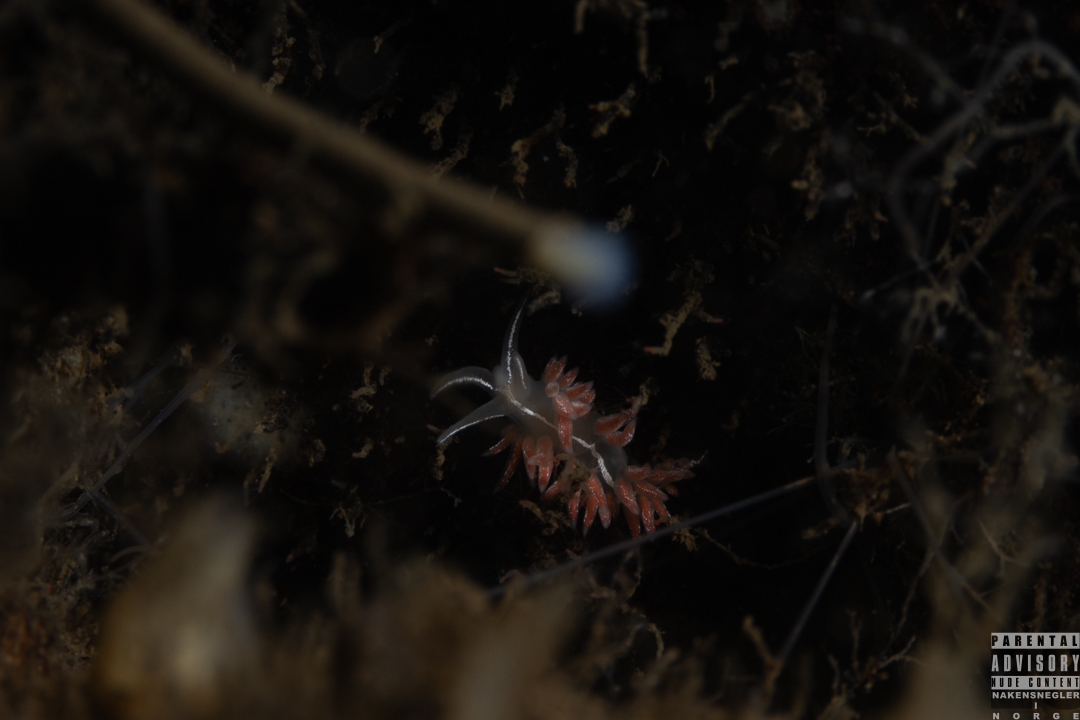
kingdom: Animalia
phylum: Mollusca
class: Gastropoda
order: Nudibranchia
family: Coryphellidae
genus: Coryphella
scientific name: Coryphella chriskaugei
